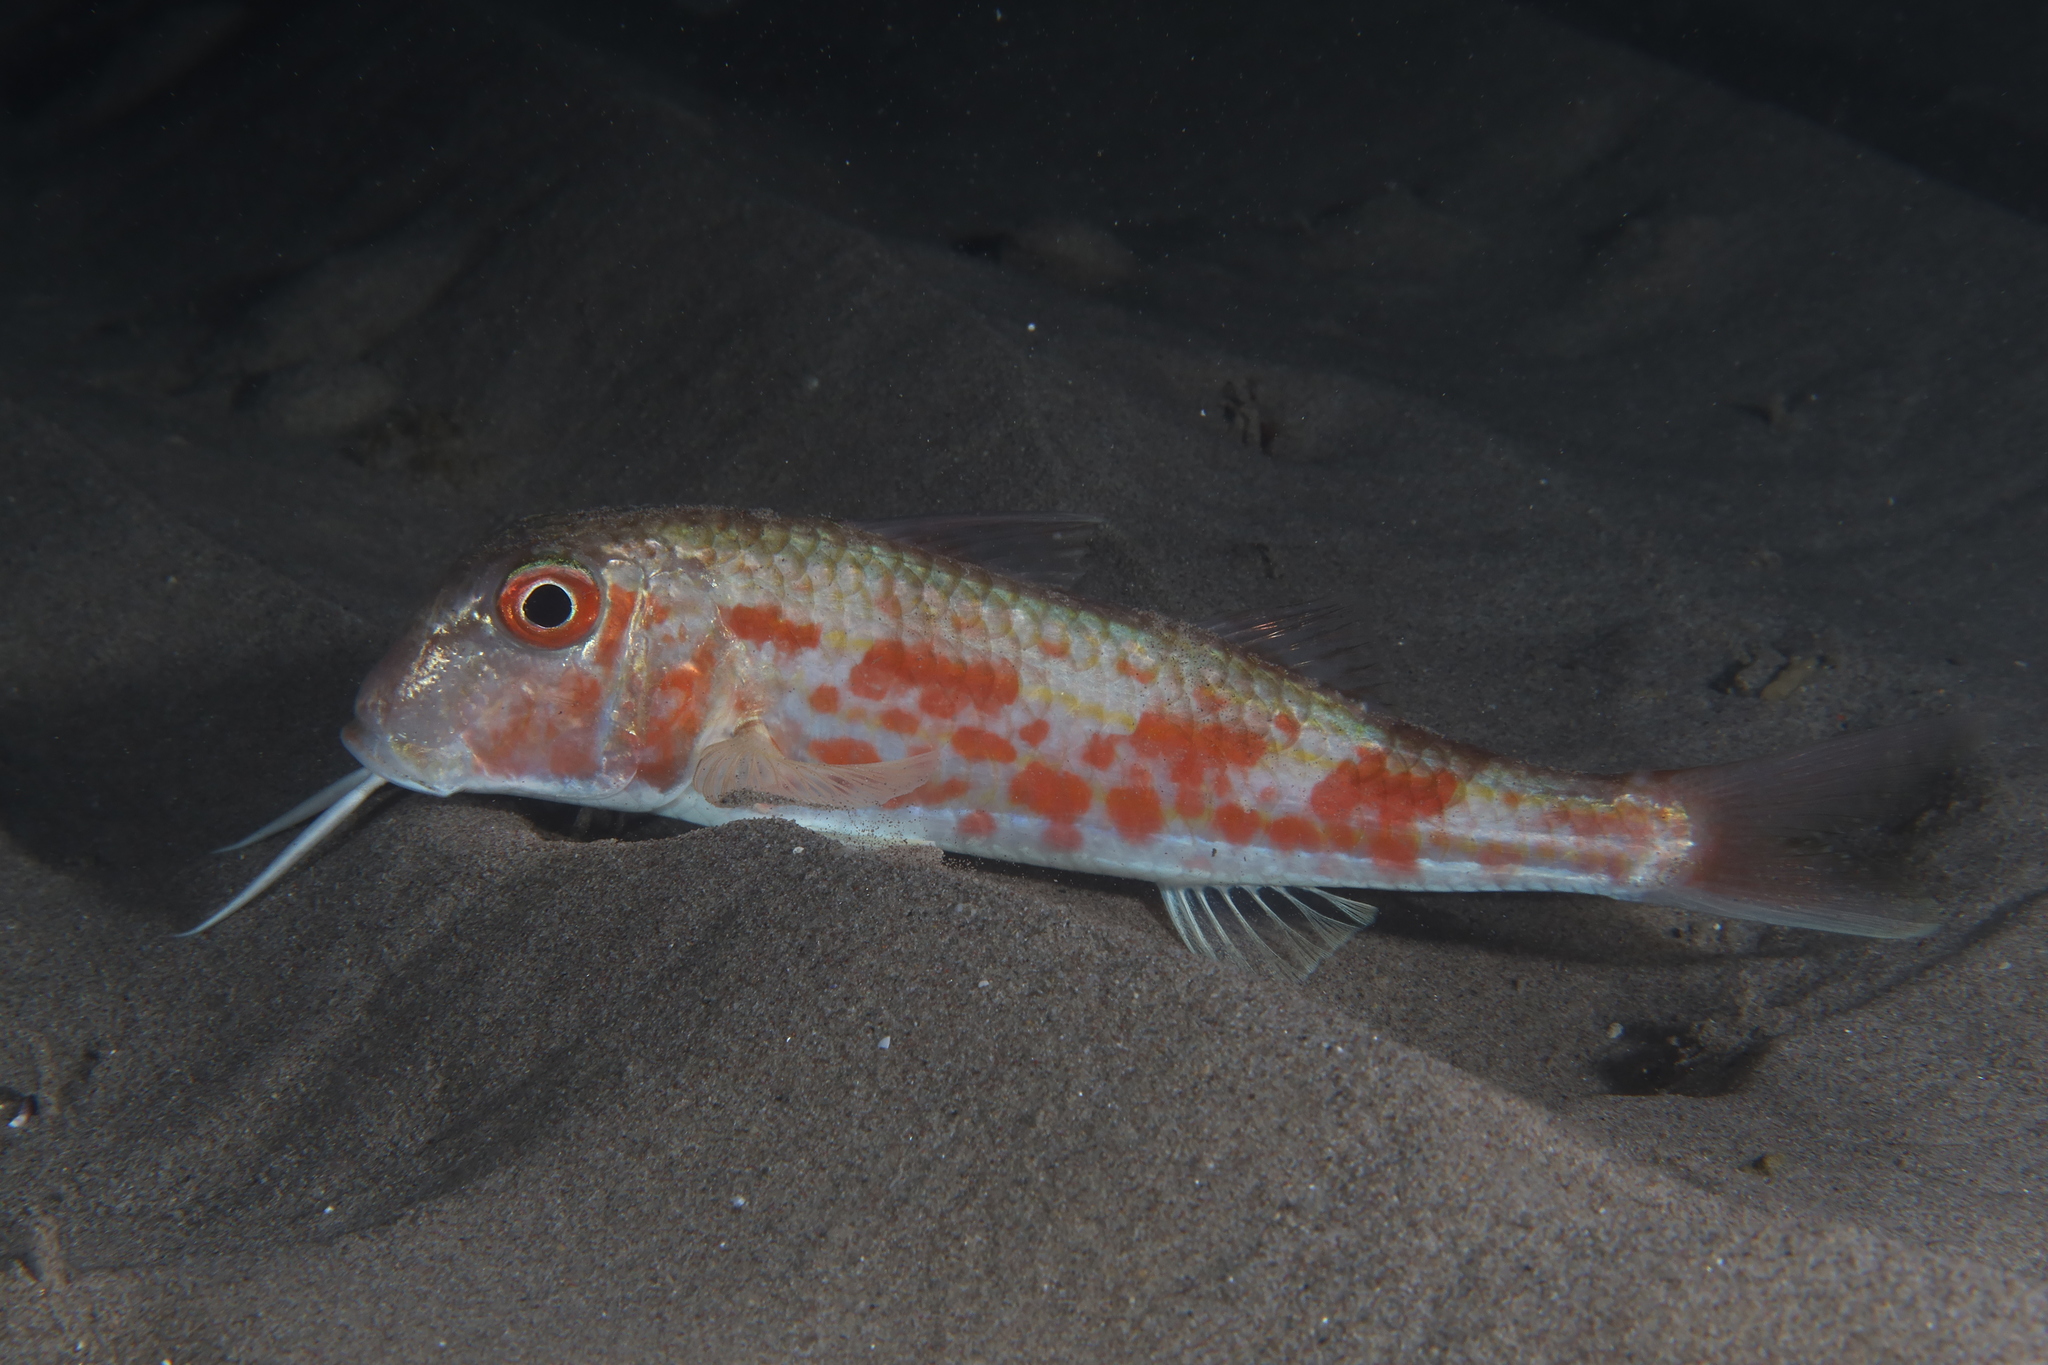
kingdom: Animalia
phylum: Chordata
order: Perciformes
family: Mullidae
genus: Mullus
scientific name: Mullus barbatus
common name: Blunt-snouted mullet
